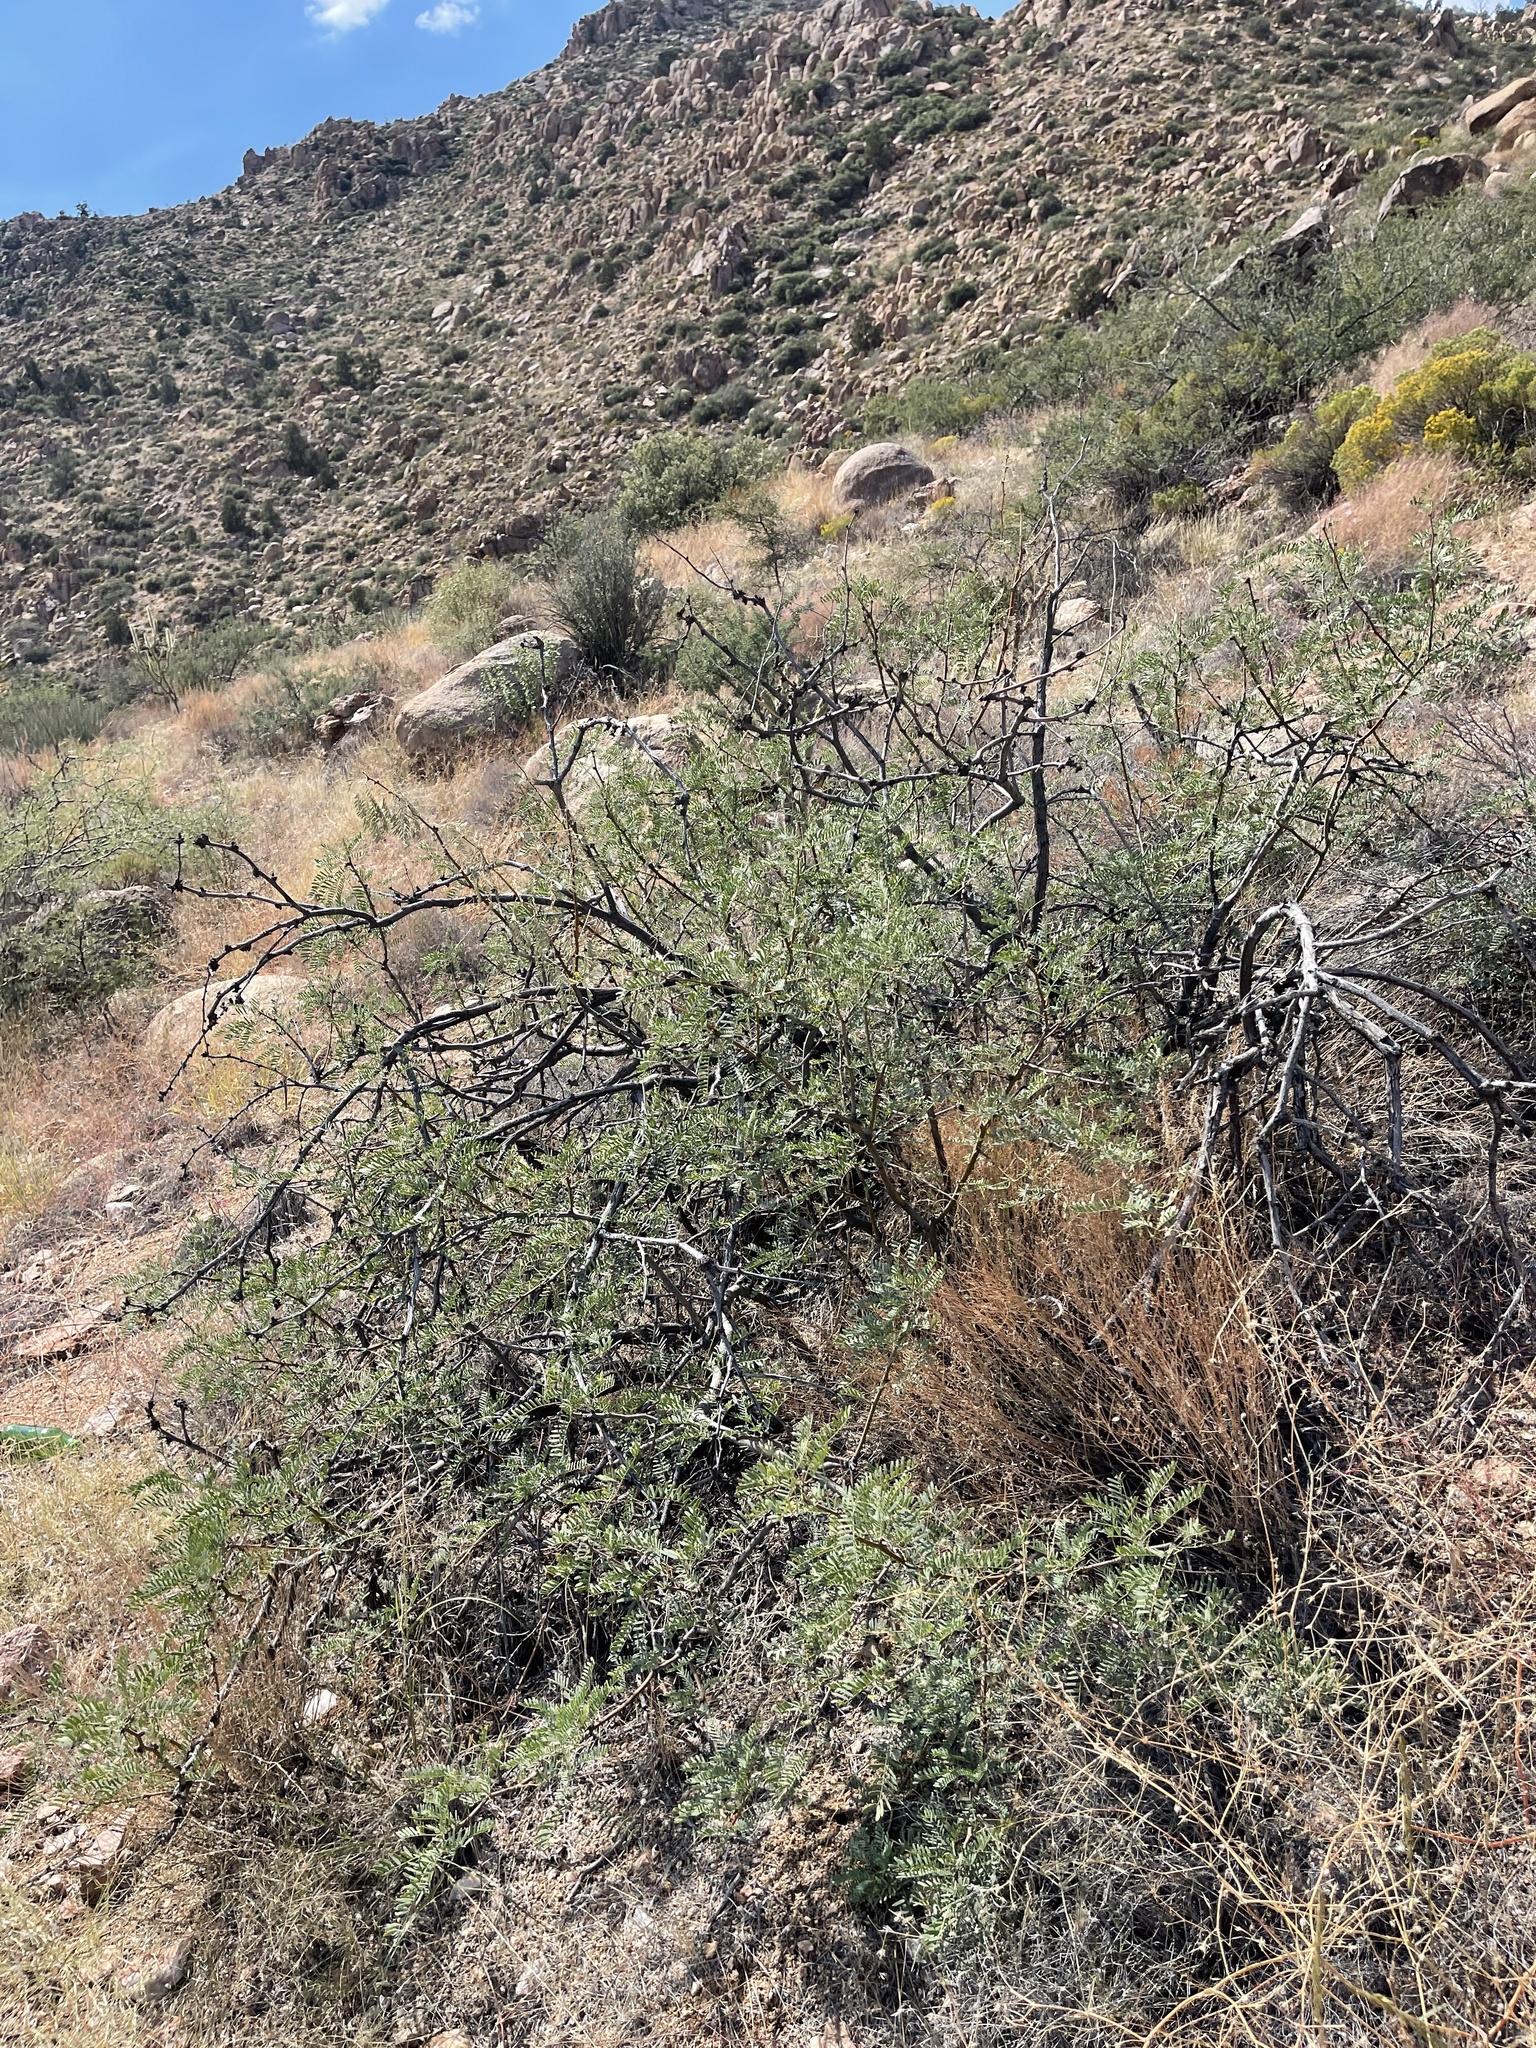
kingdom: Plantae
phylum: Tracheophyta
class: Magnoliopsida
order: Fabales
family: Fabaceae
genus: Prosopis
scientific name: Prosopis pubescens
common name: Screw-bean
